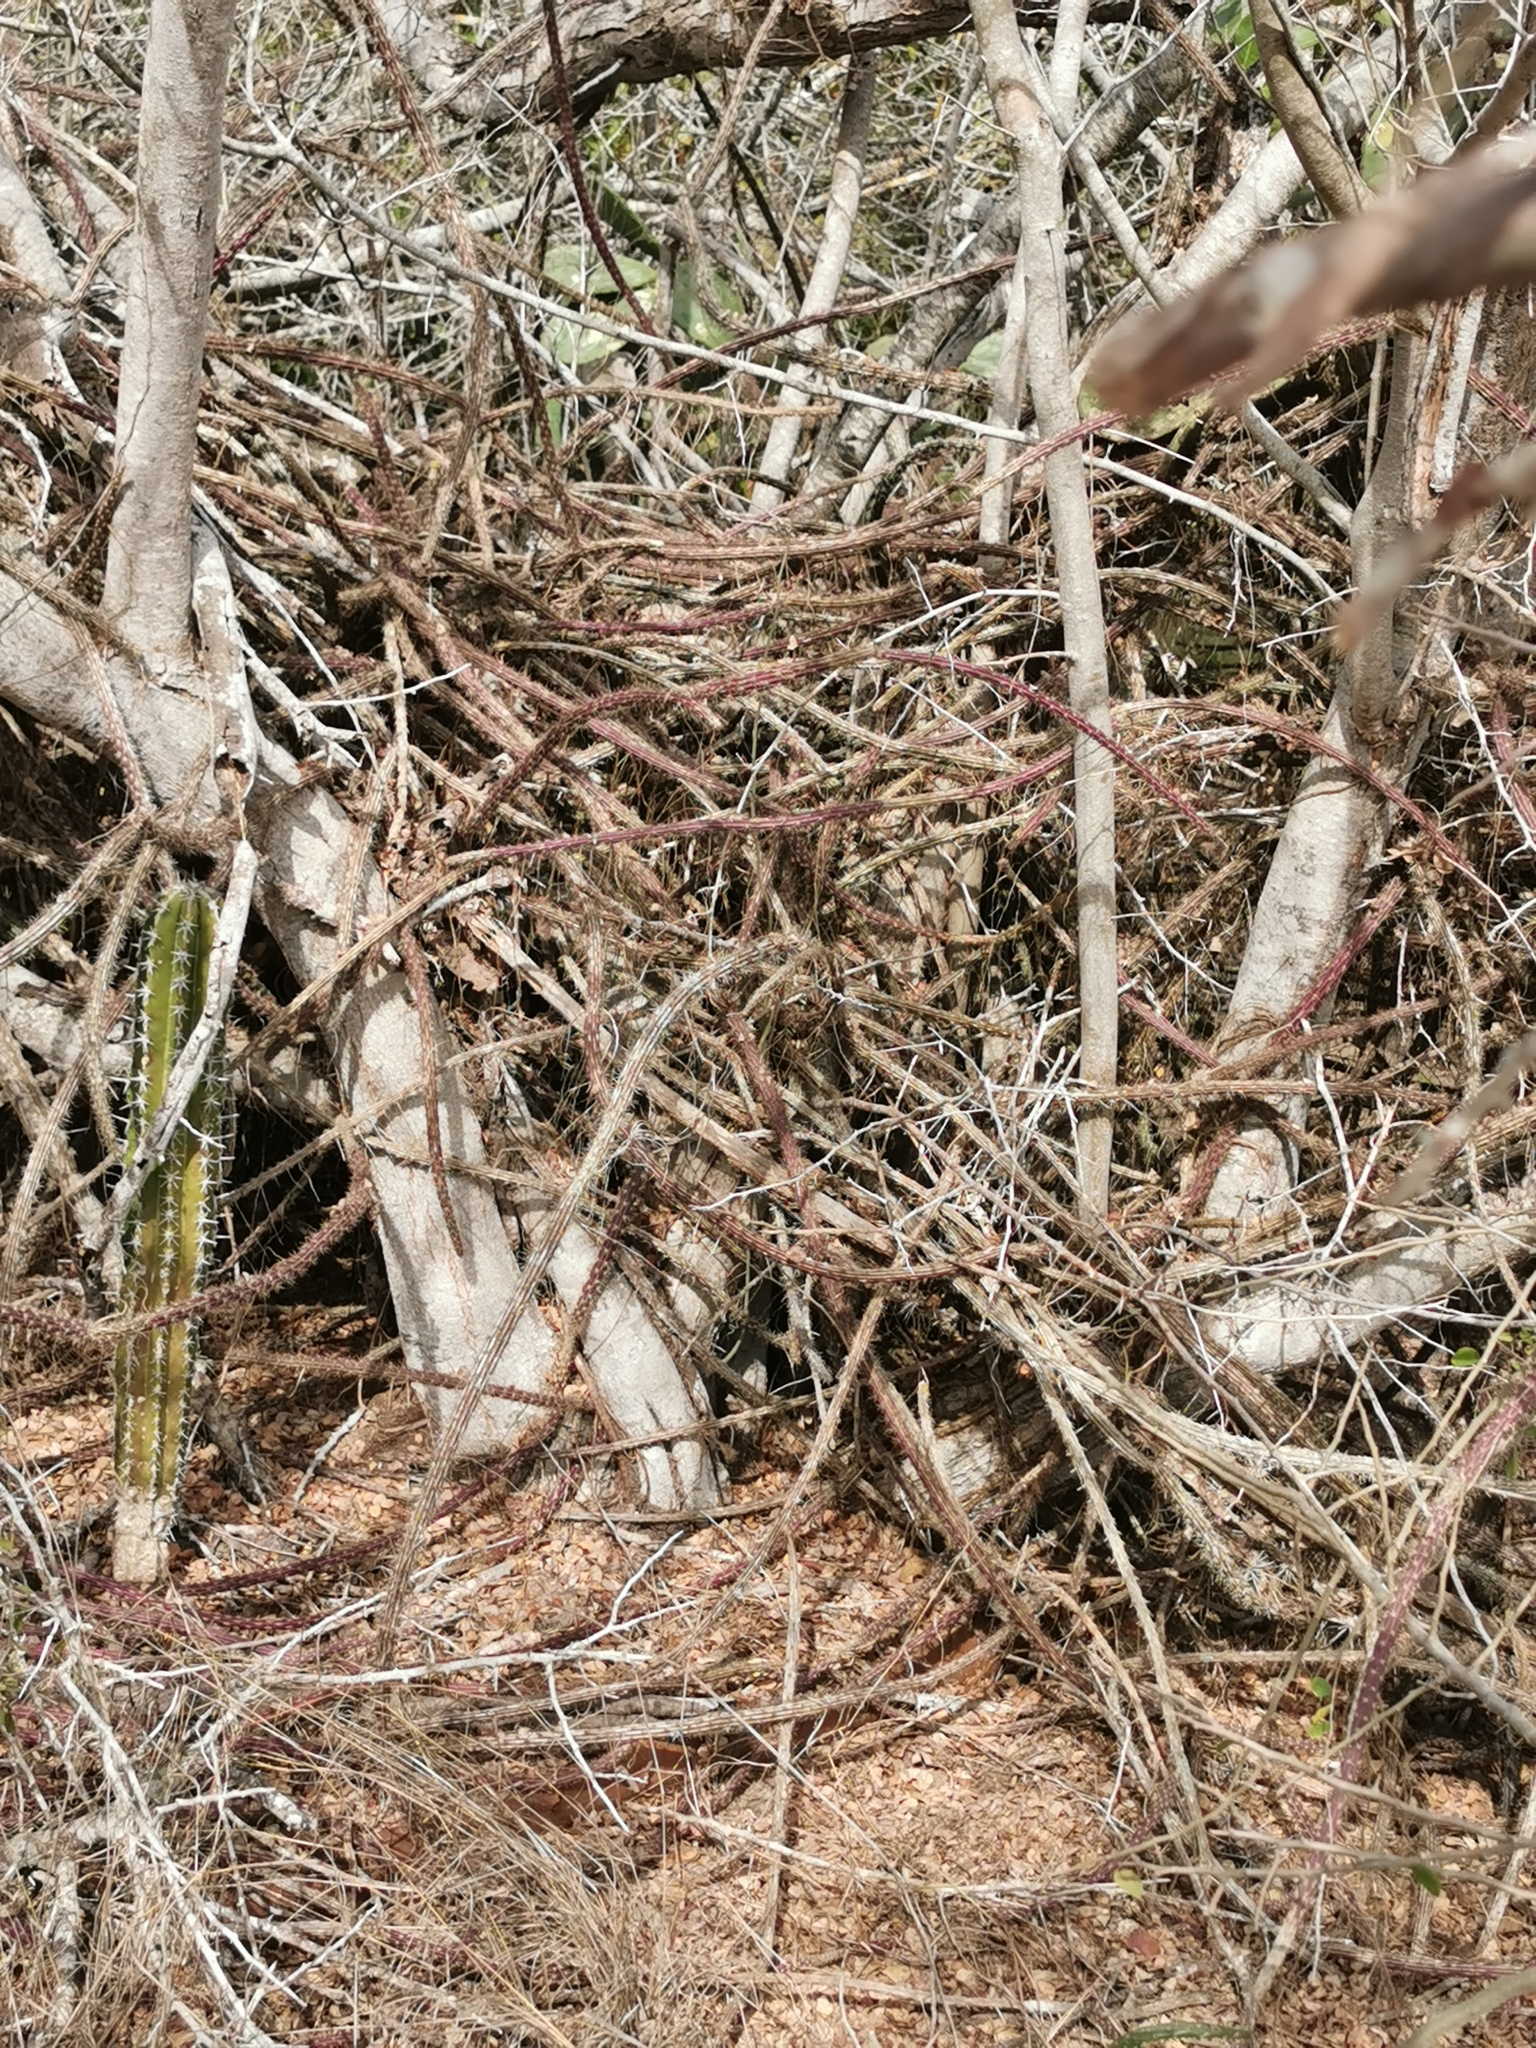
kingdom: Plantae
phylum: Tracheophyta
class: Magnoliopsida
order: Caryophyllales
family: Cactaceae
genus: Selenicereus
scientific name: Selenicereus vagans
